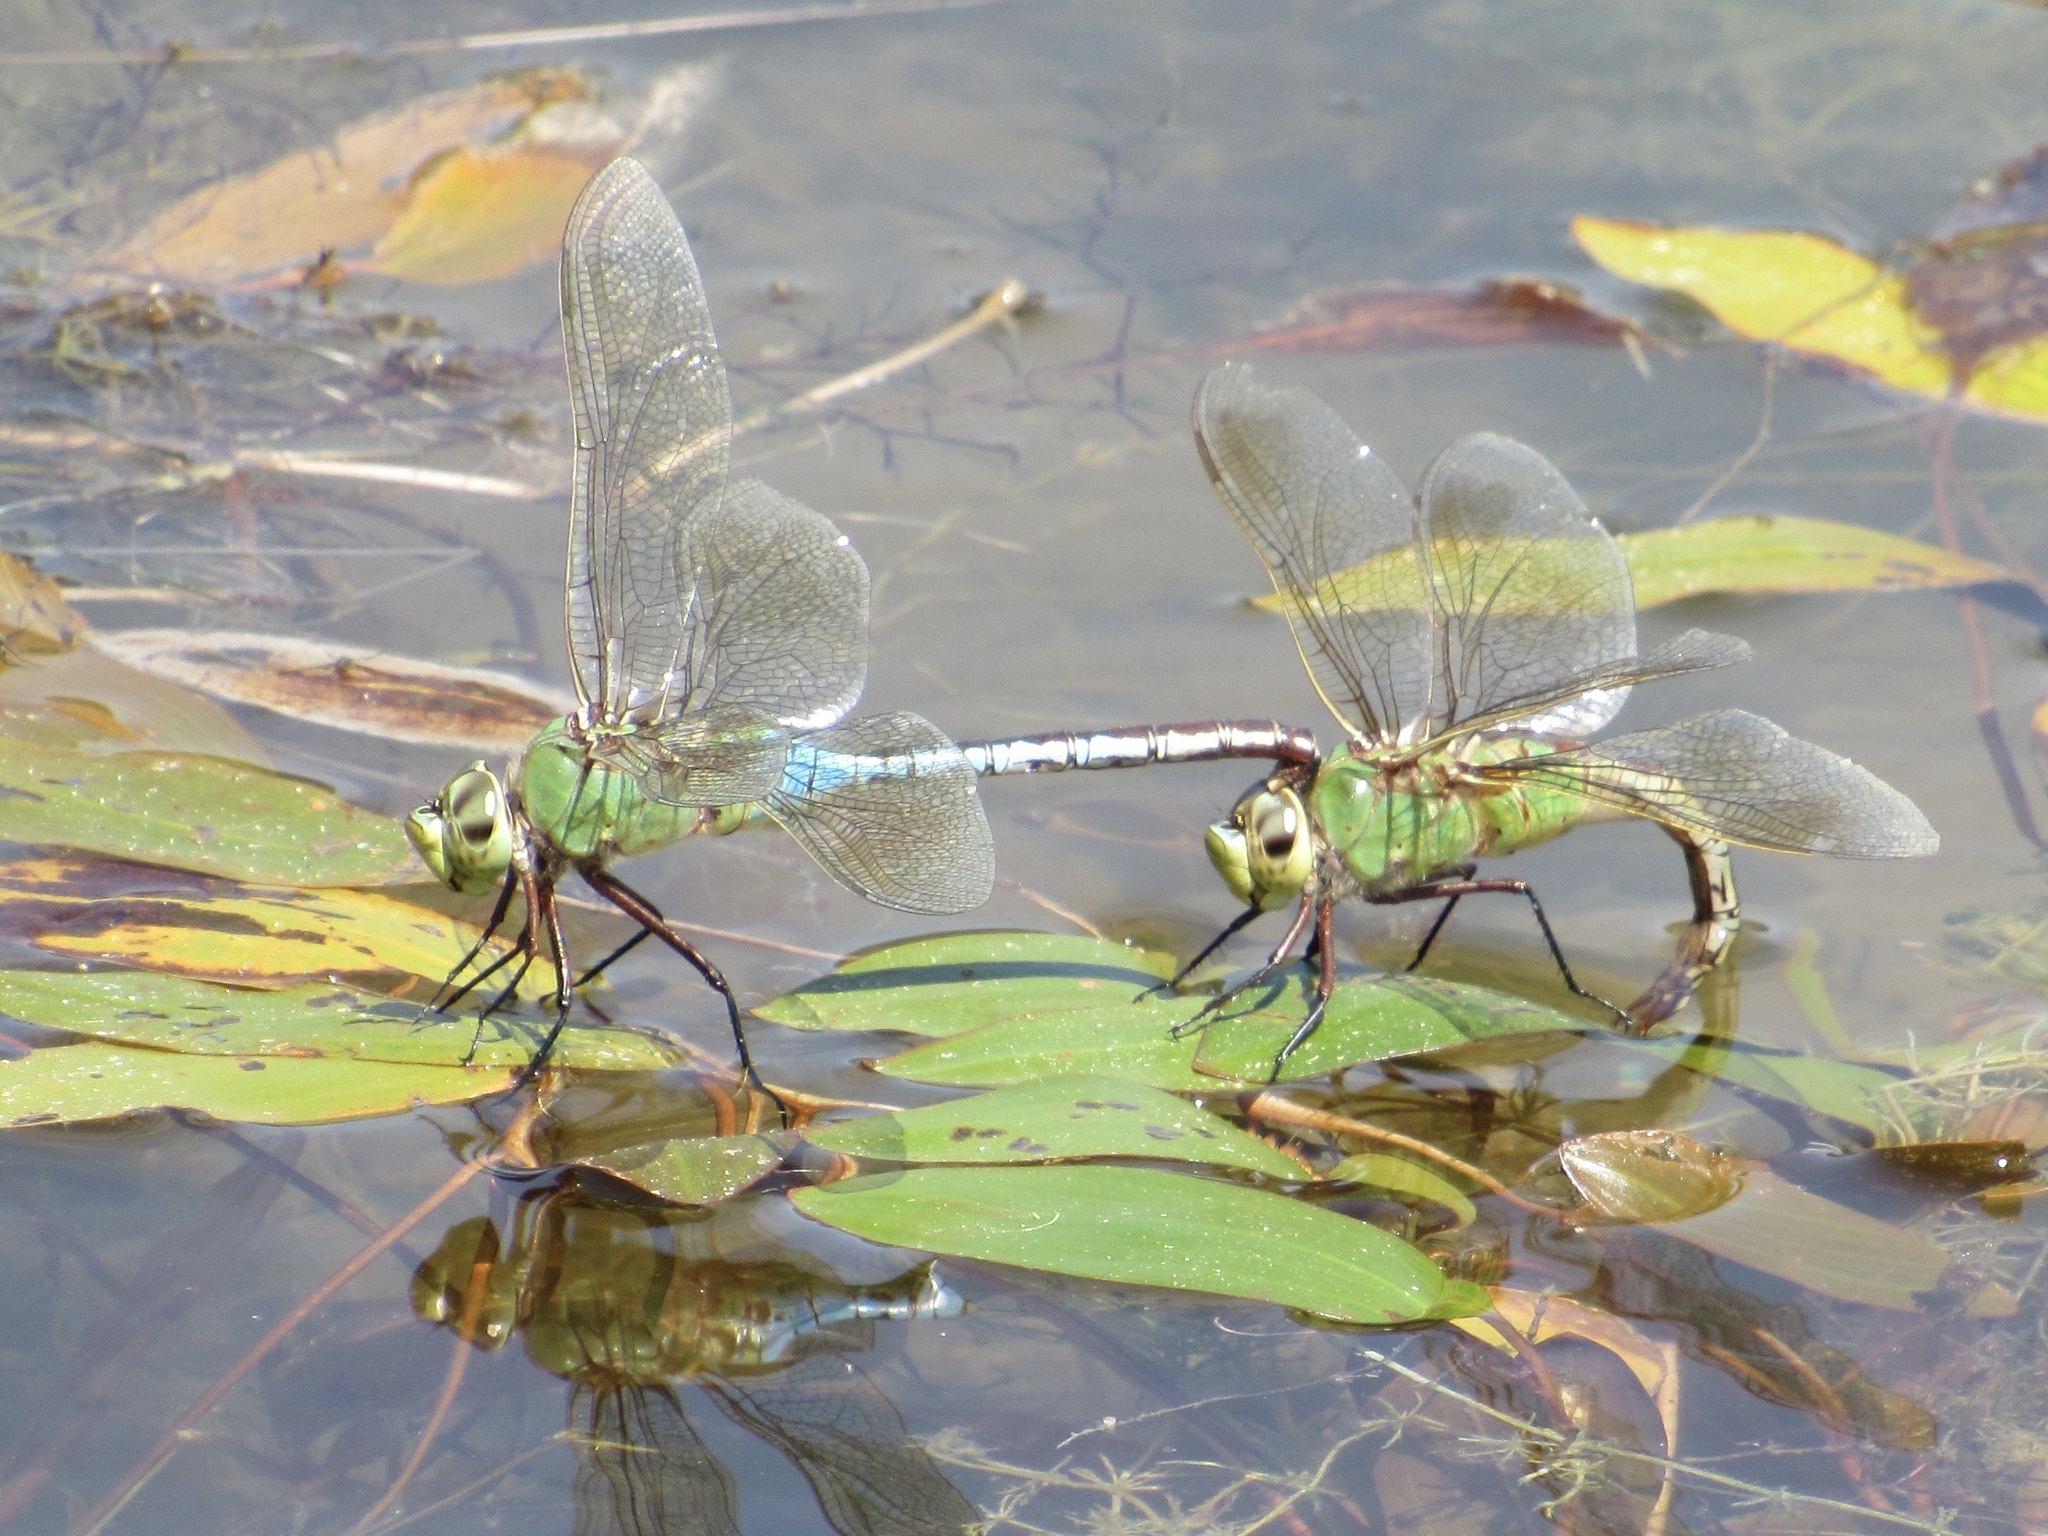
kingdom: Animalia
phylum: Arthropoda
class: Insecta
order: Odonata
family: Aeshnidae
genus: Anax
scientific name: Anax junius
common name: Common green darner
